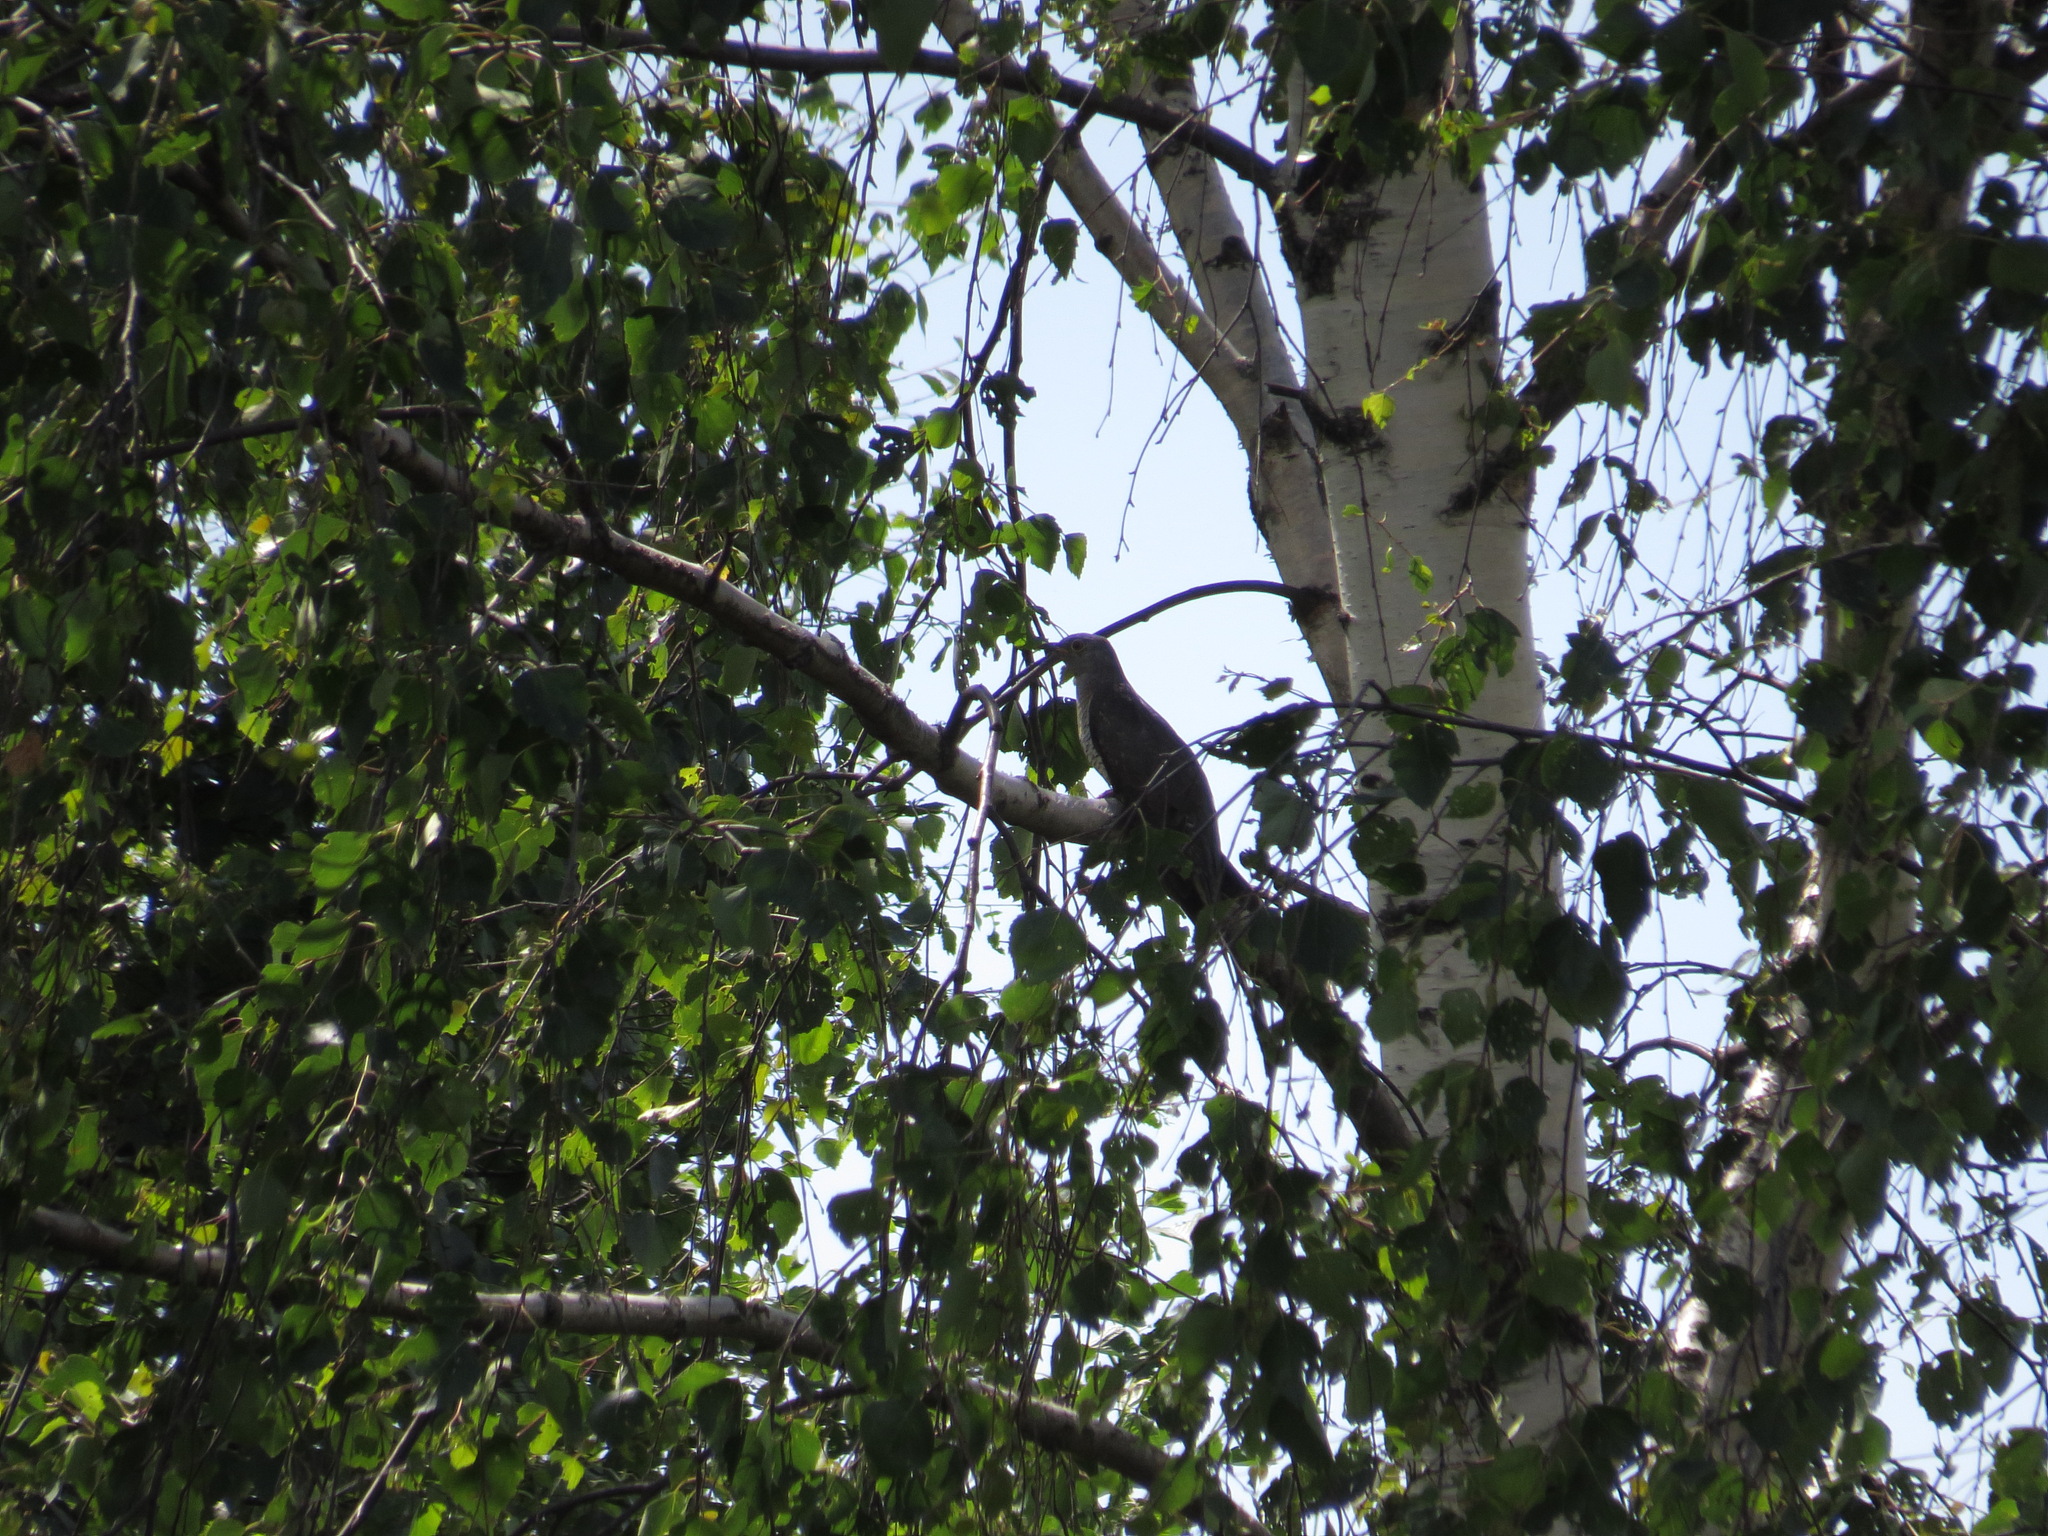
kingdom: Animalia
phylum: Chordata
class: Aves
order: Cuculiformes
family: Cuculidae
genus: Cuculus
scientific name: Cuculus canorus
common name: Common cuckoo
